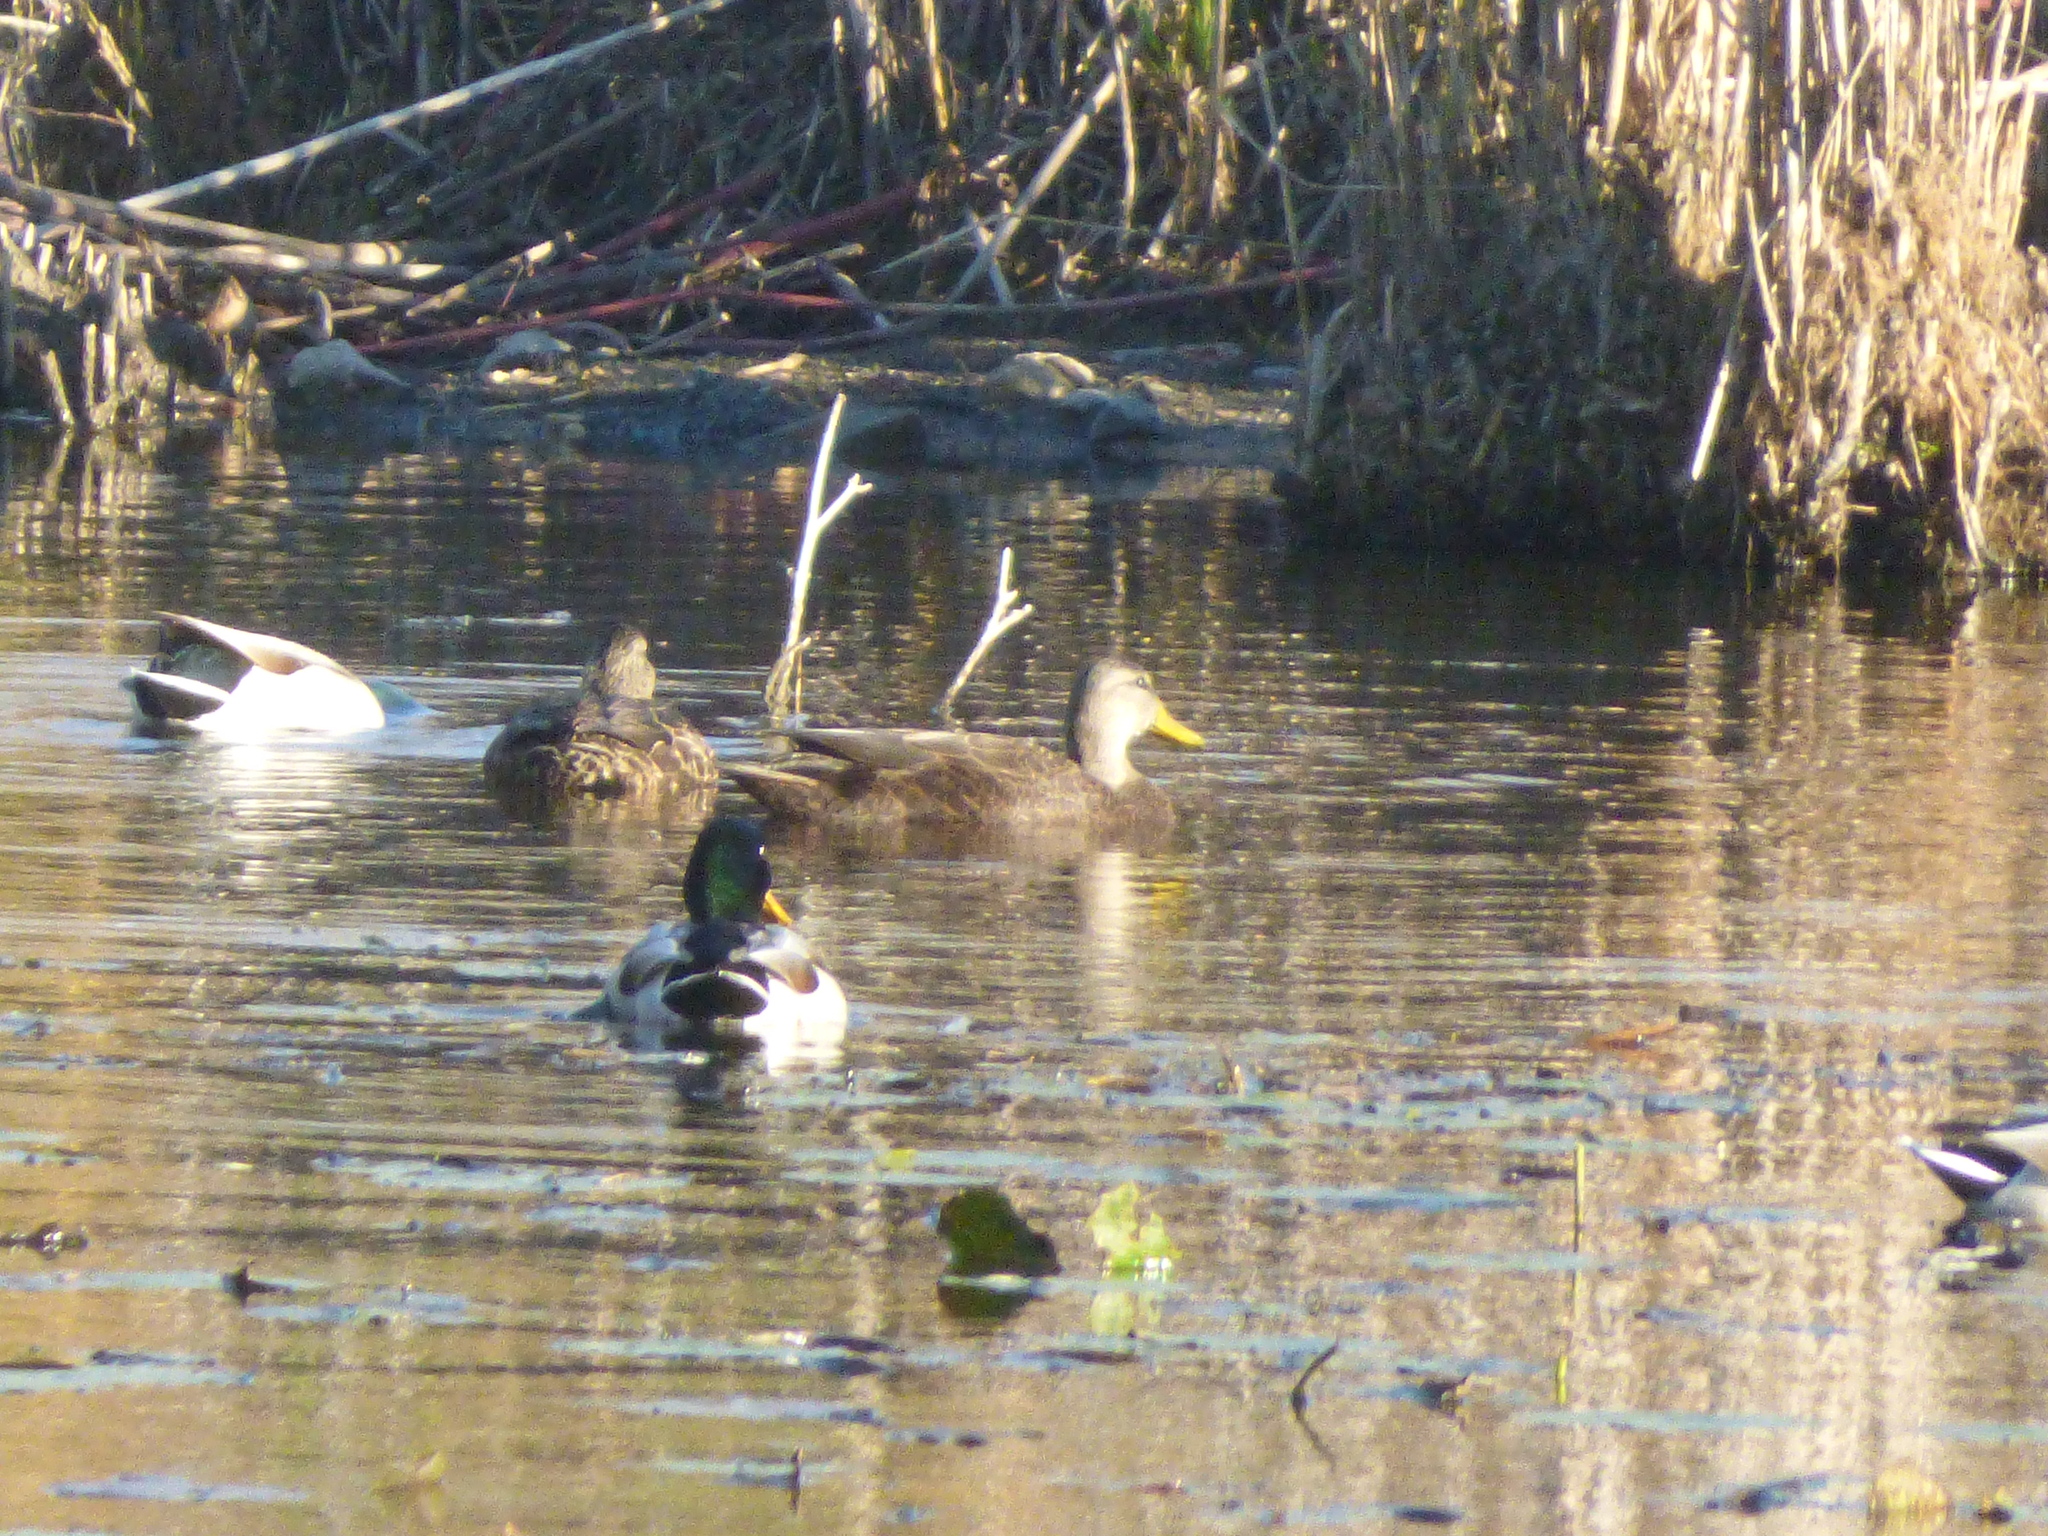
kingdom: Animalia
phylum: Chordata
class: Aves
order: Anseriformes
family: Anatidae
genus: Anas
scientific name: Anas platyrhynchos
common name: Mallard
